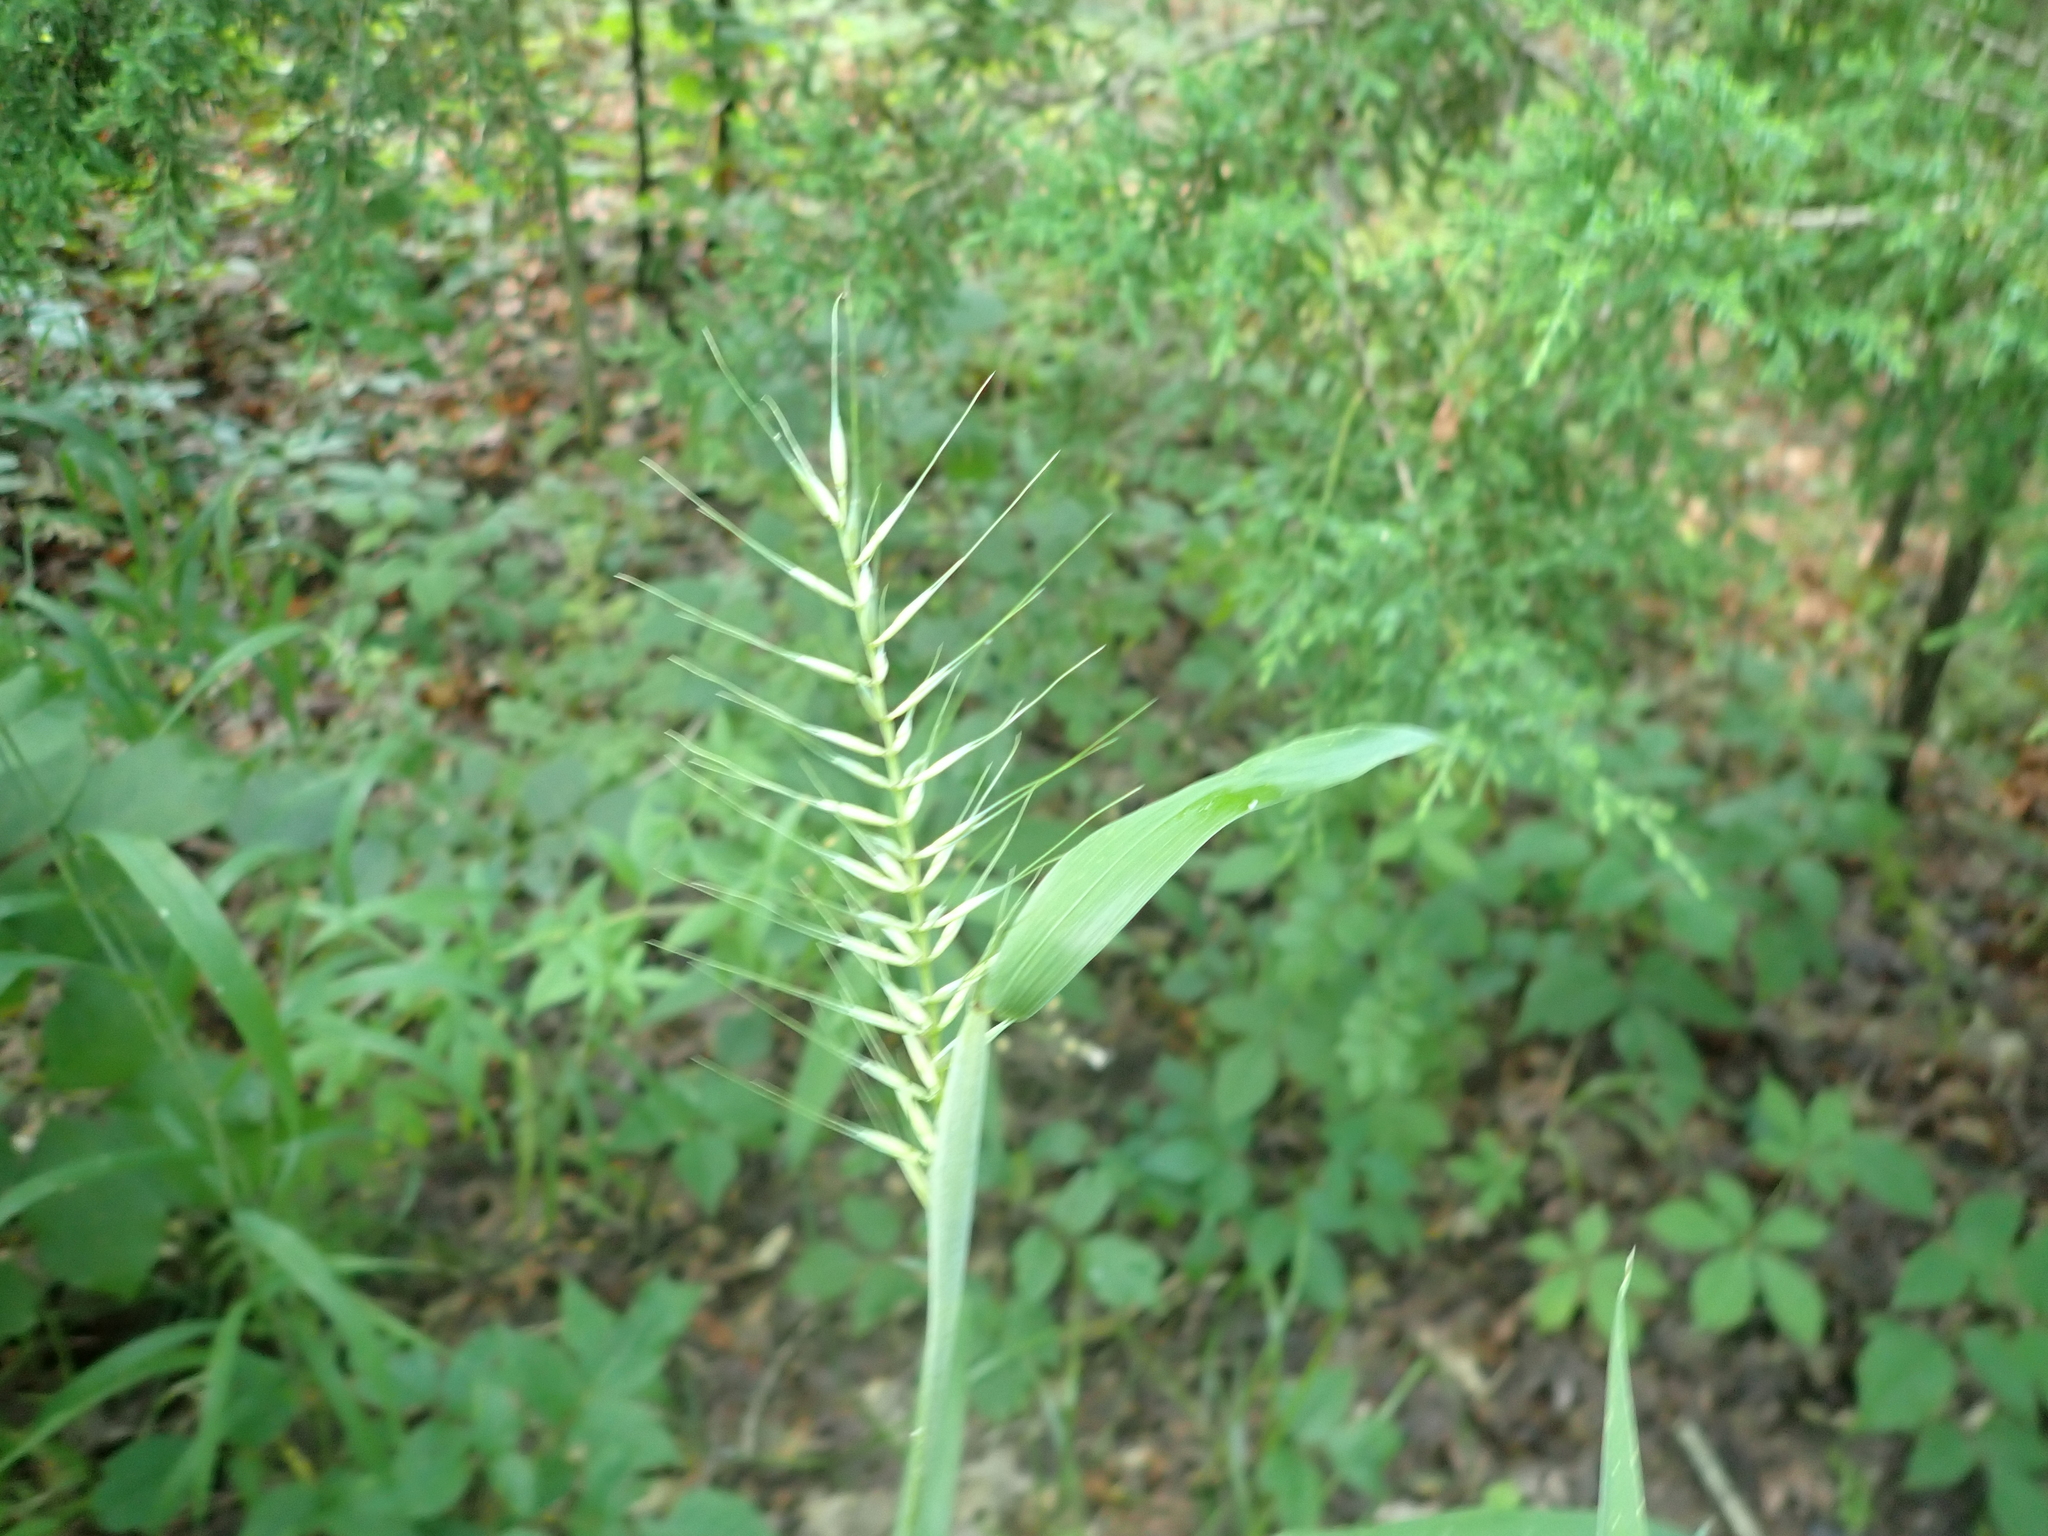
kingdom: Plantae
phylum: Tracheophyta
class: Liliopsida
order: Poales
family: Poaceae
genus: Elymus
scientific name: Elymus hystrix
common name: Bottlebrush grass
